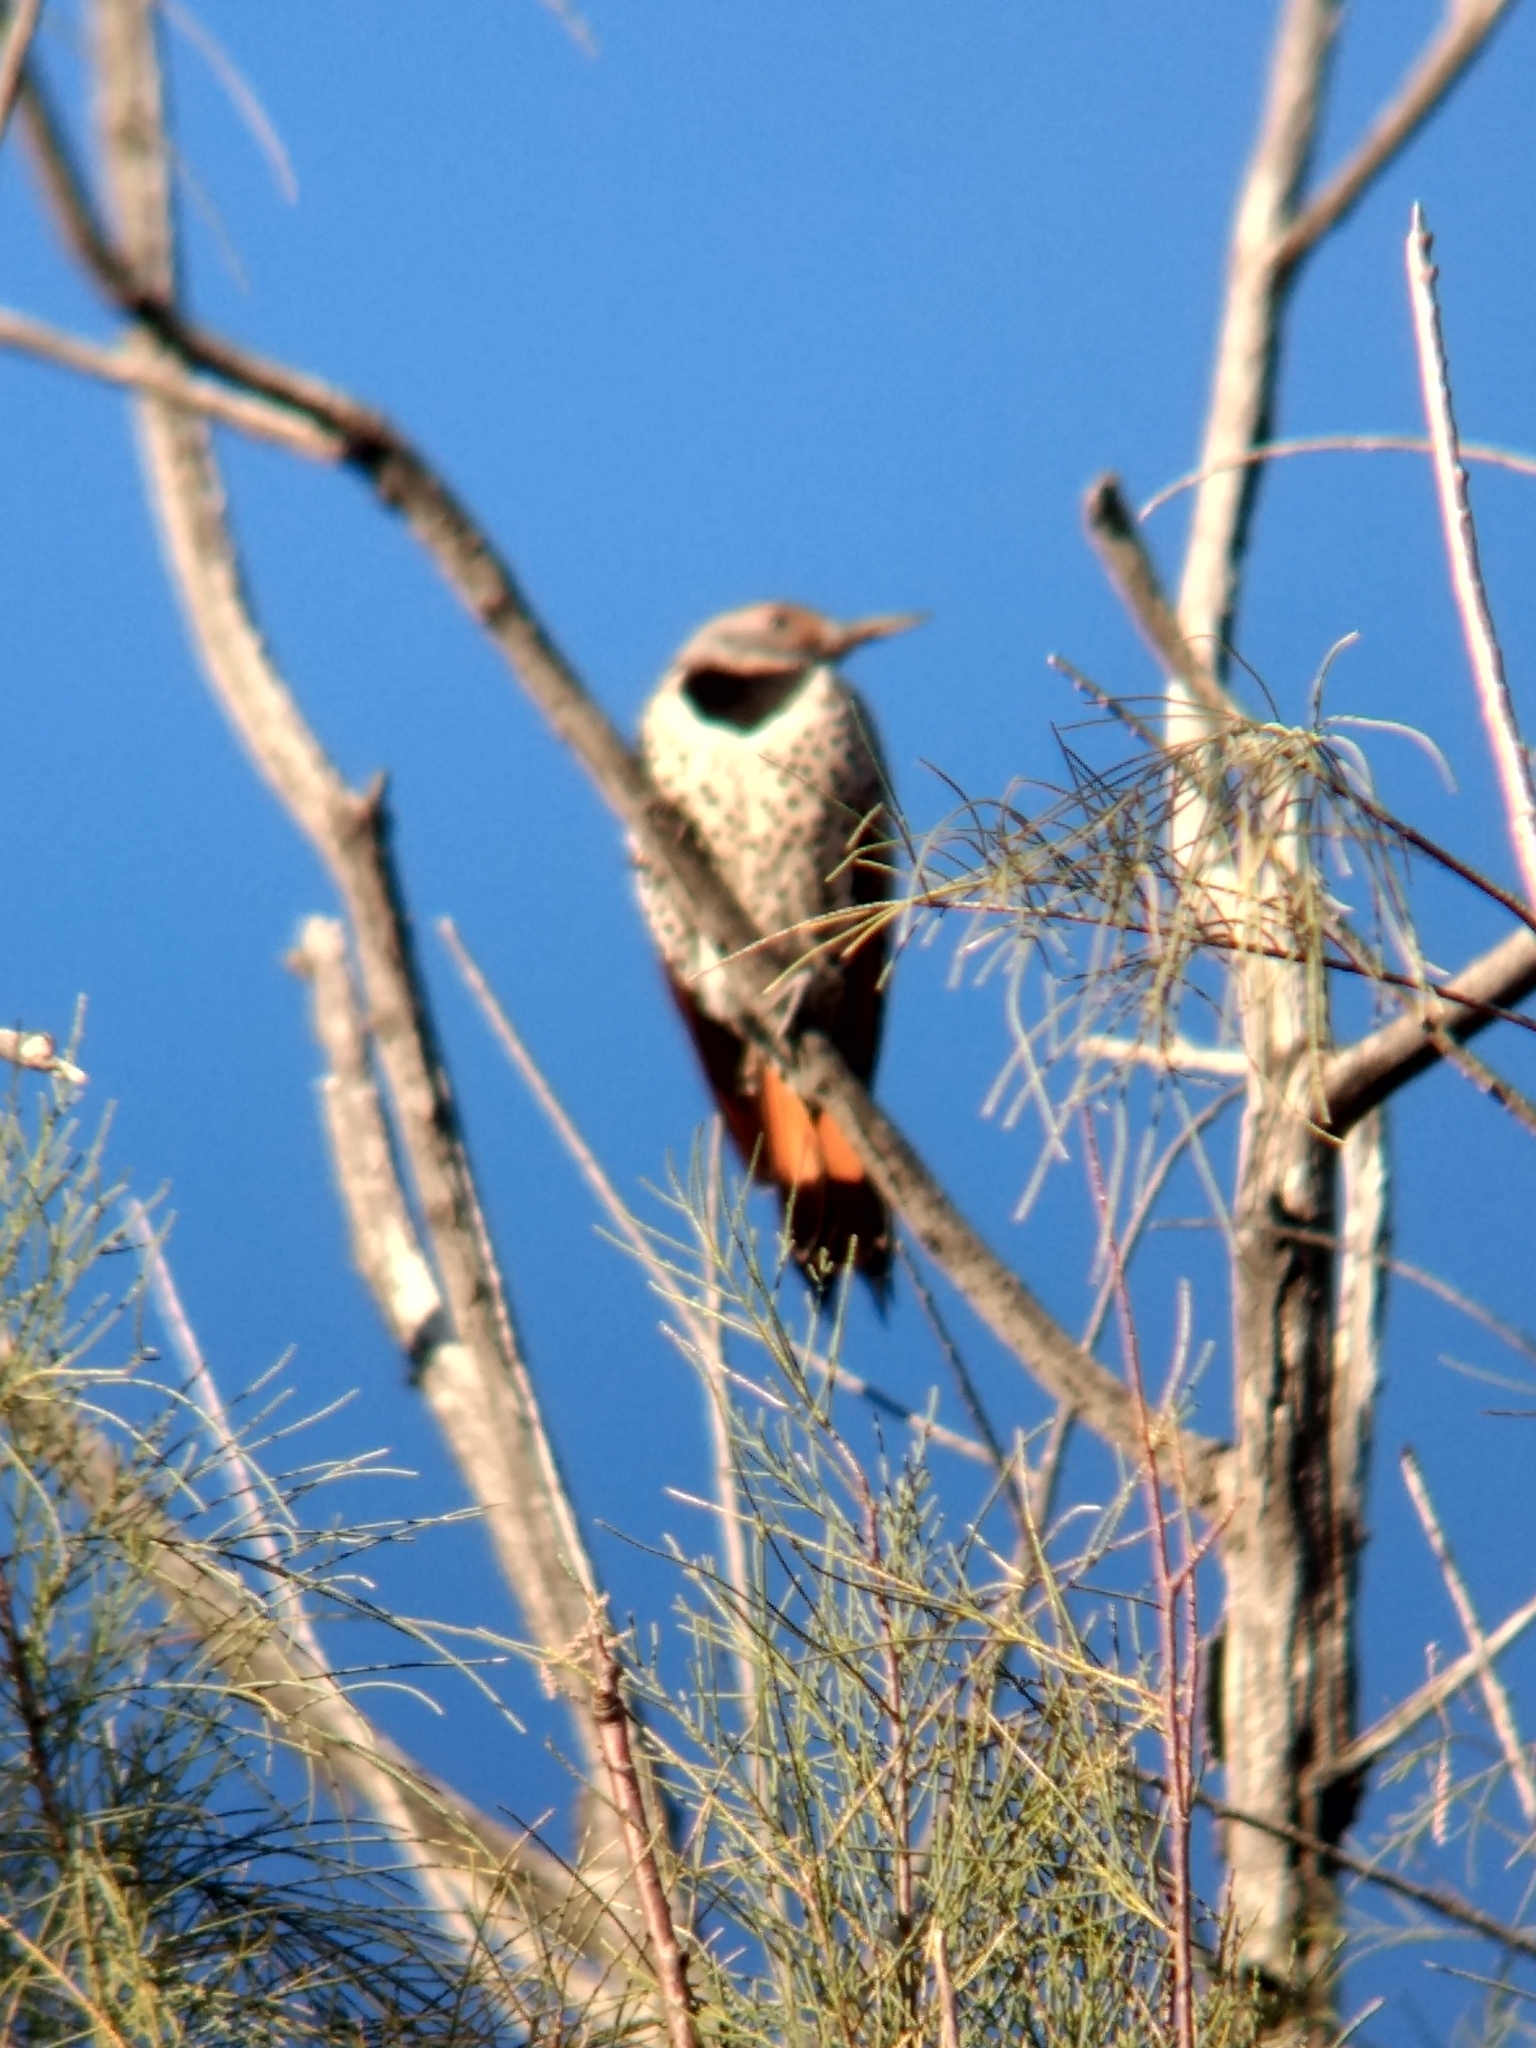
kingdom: Animalia
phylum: Chordata
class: Aves
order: Piciformes
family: Picidae
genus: Colaptes
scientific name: Colaptes auratus
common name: Northern flicker
